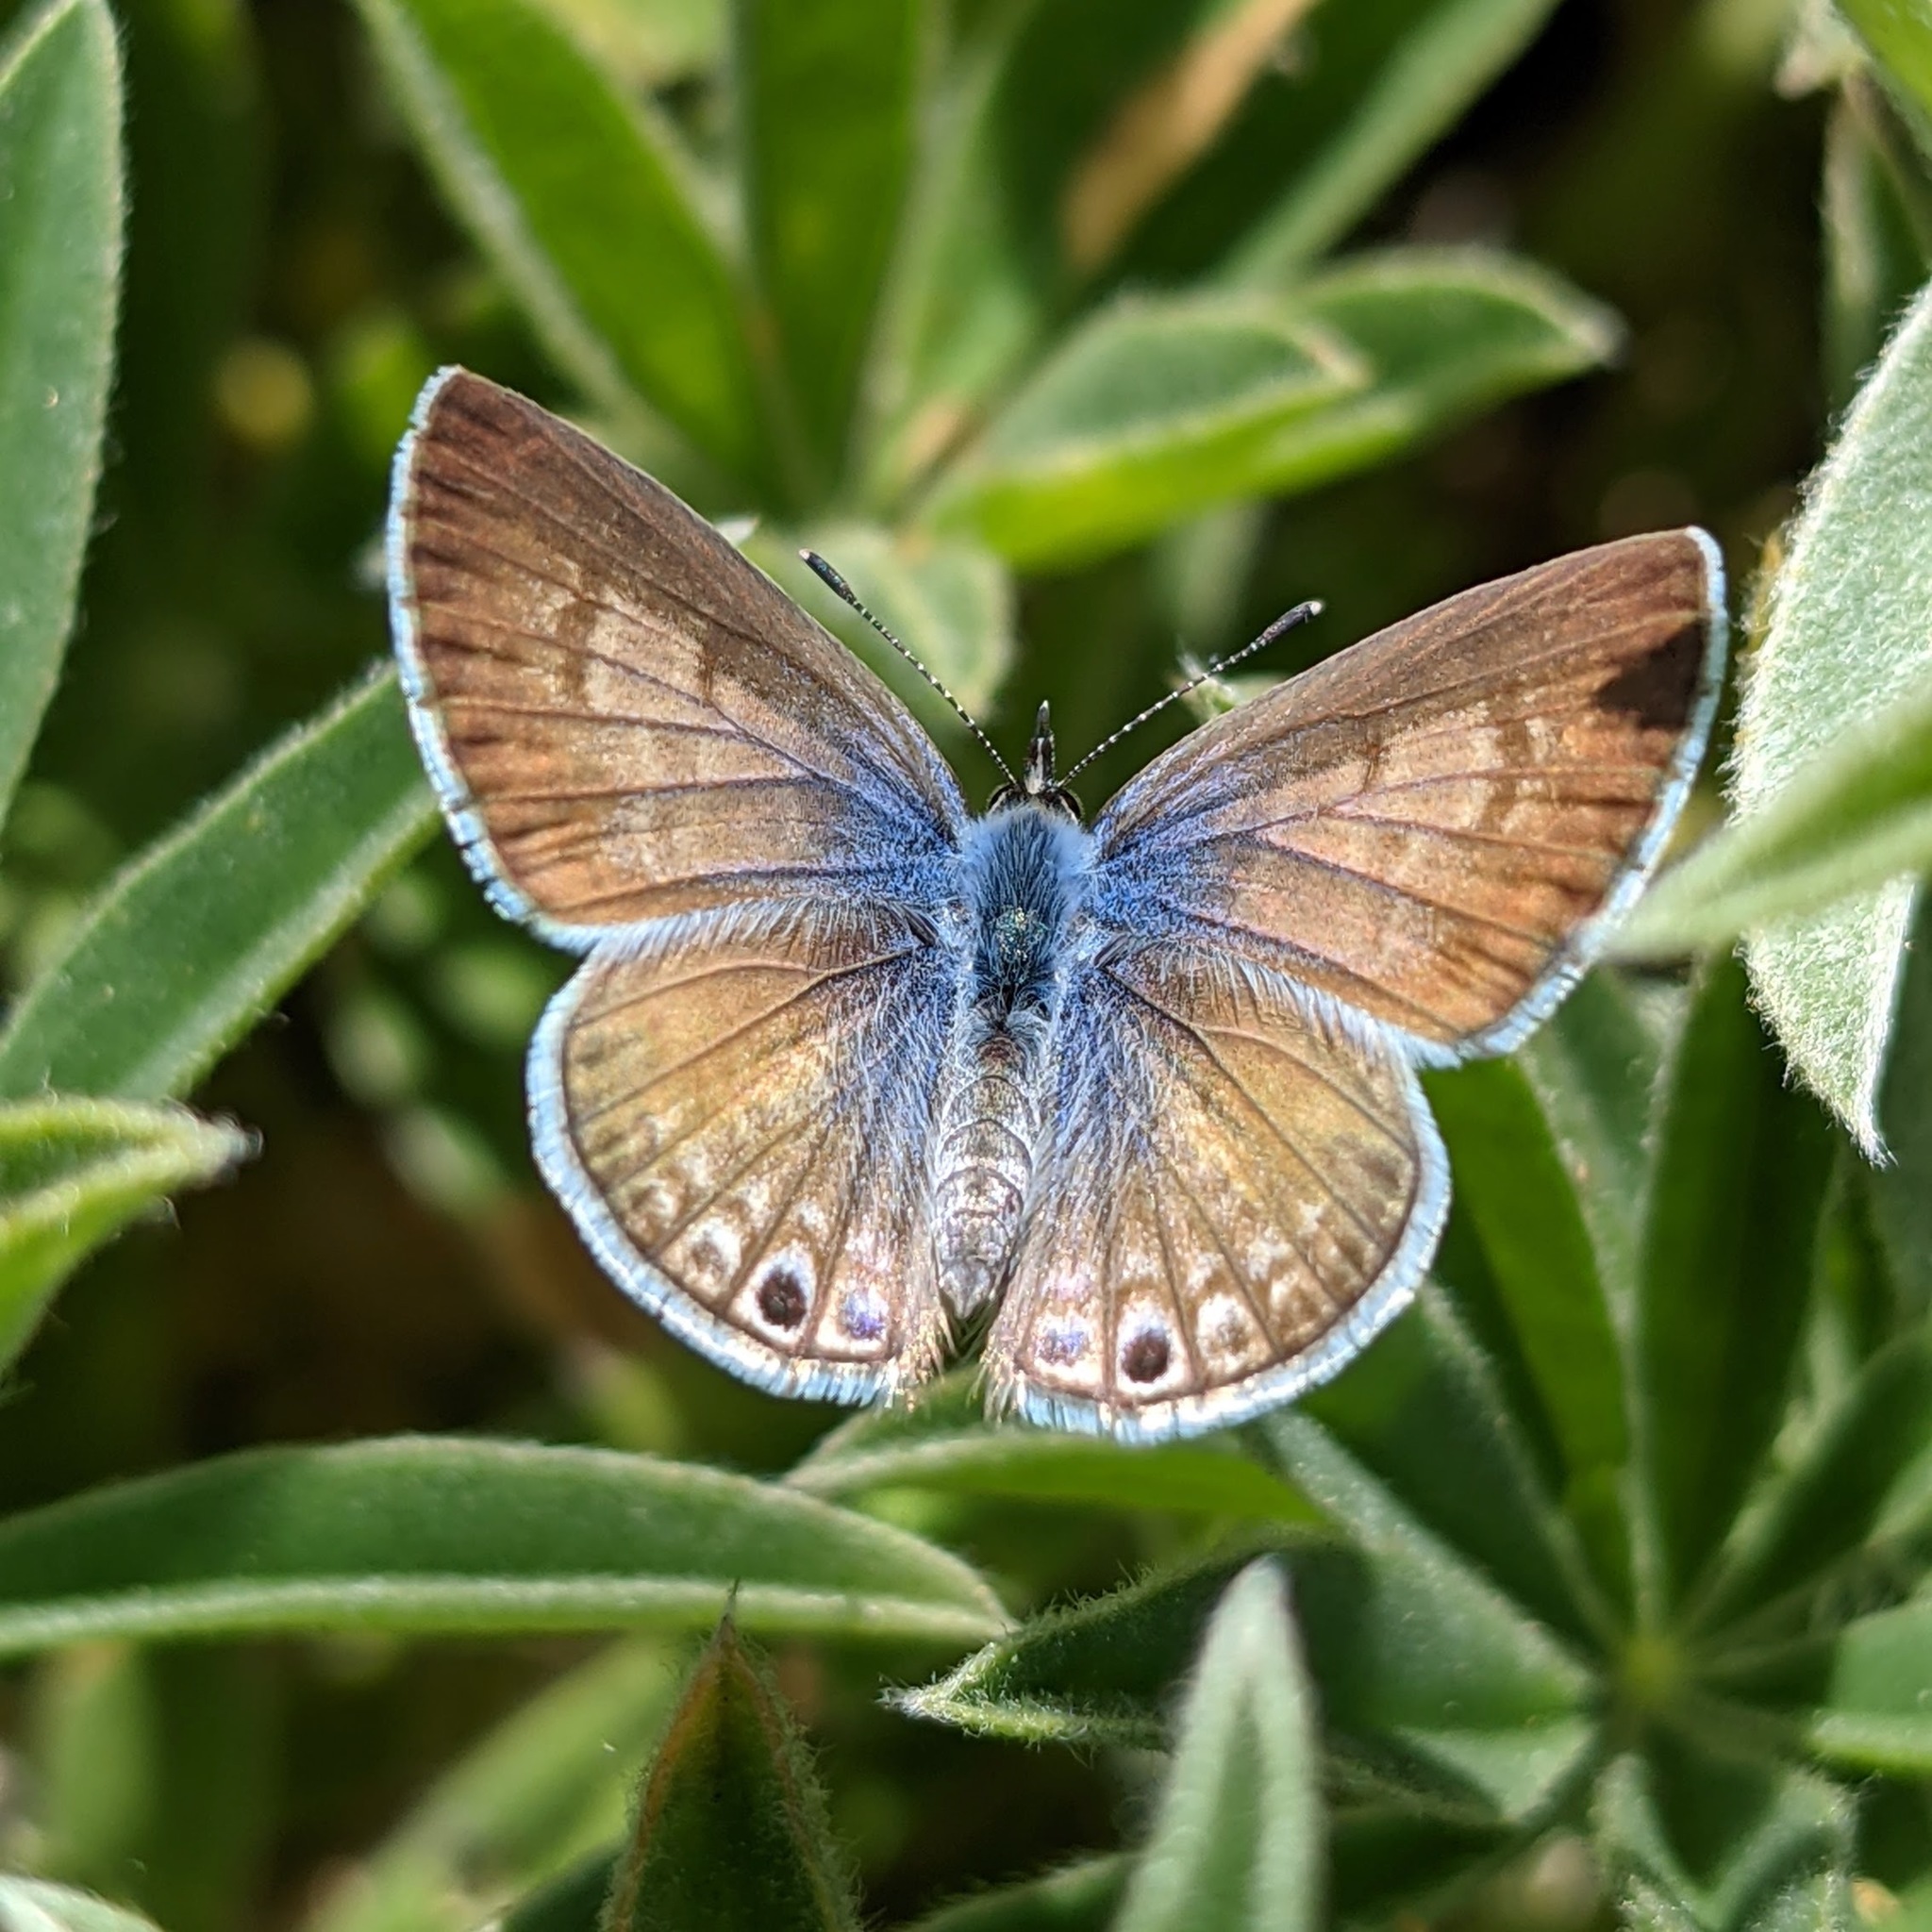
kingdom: Animalia
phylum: Arthropoda
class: Insecta
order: Lepidoptera
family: Lycaenidae
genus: Leptotes
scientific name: Leptotes marina
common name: Marine blue
